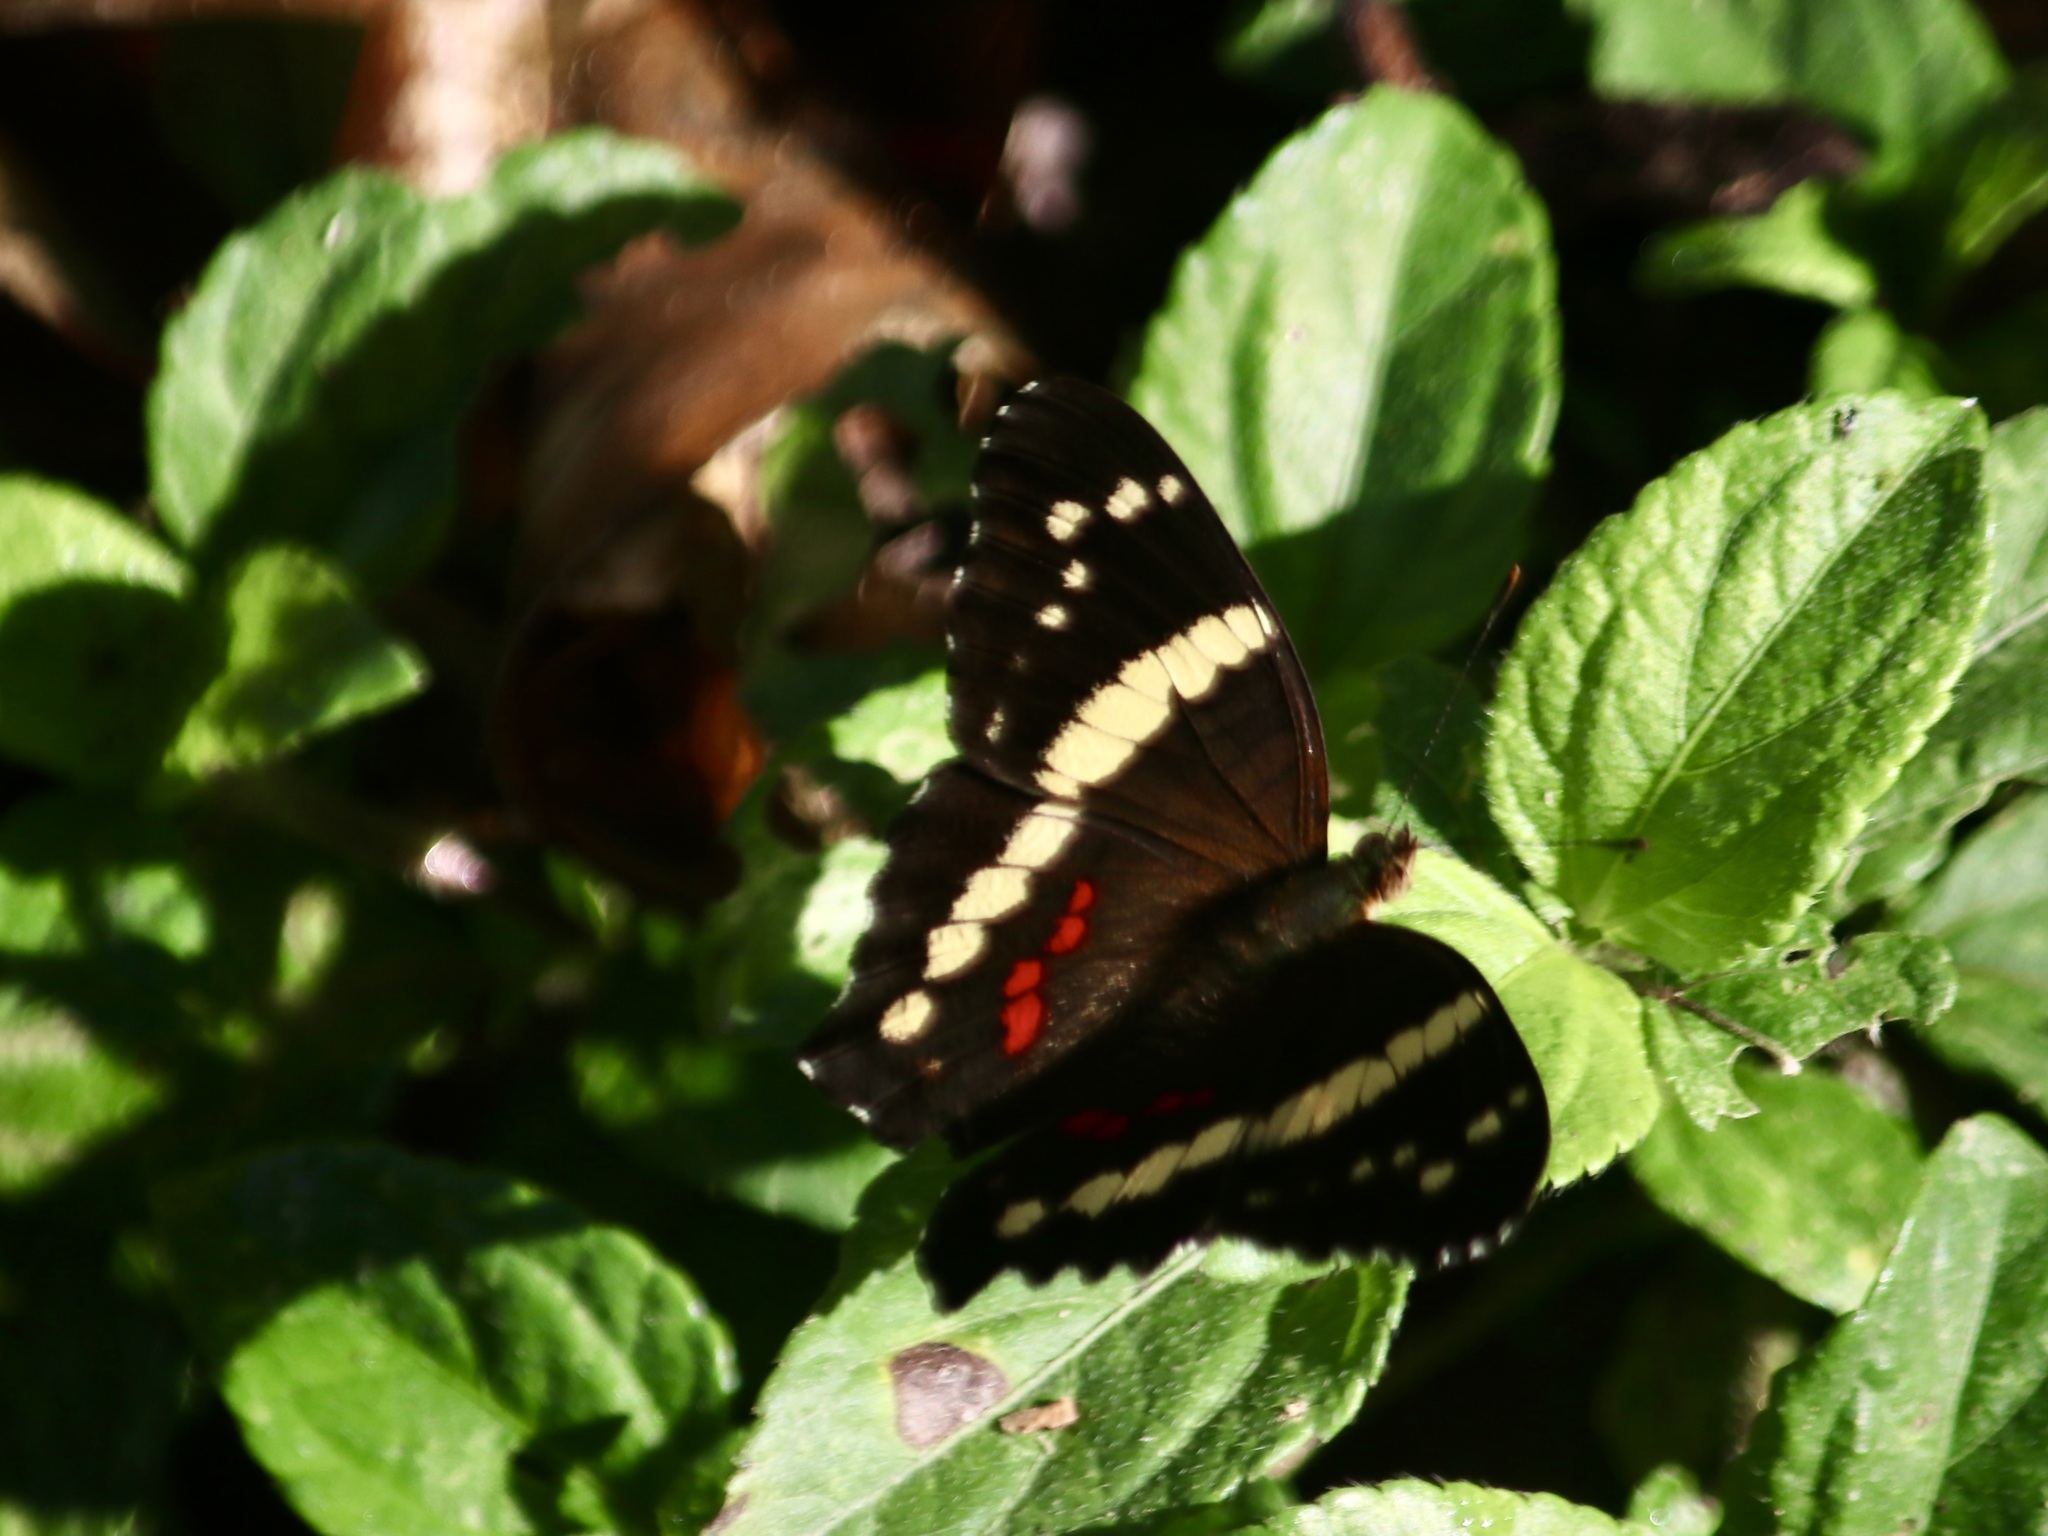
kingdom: Animalia
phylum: Arthropoda
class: Insecta
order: Lepidoptera
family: Nymphalidae
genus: Anartia
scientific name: Anartia fatima
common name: Banded peacock
